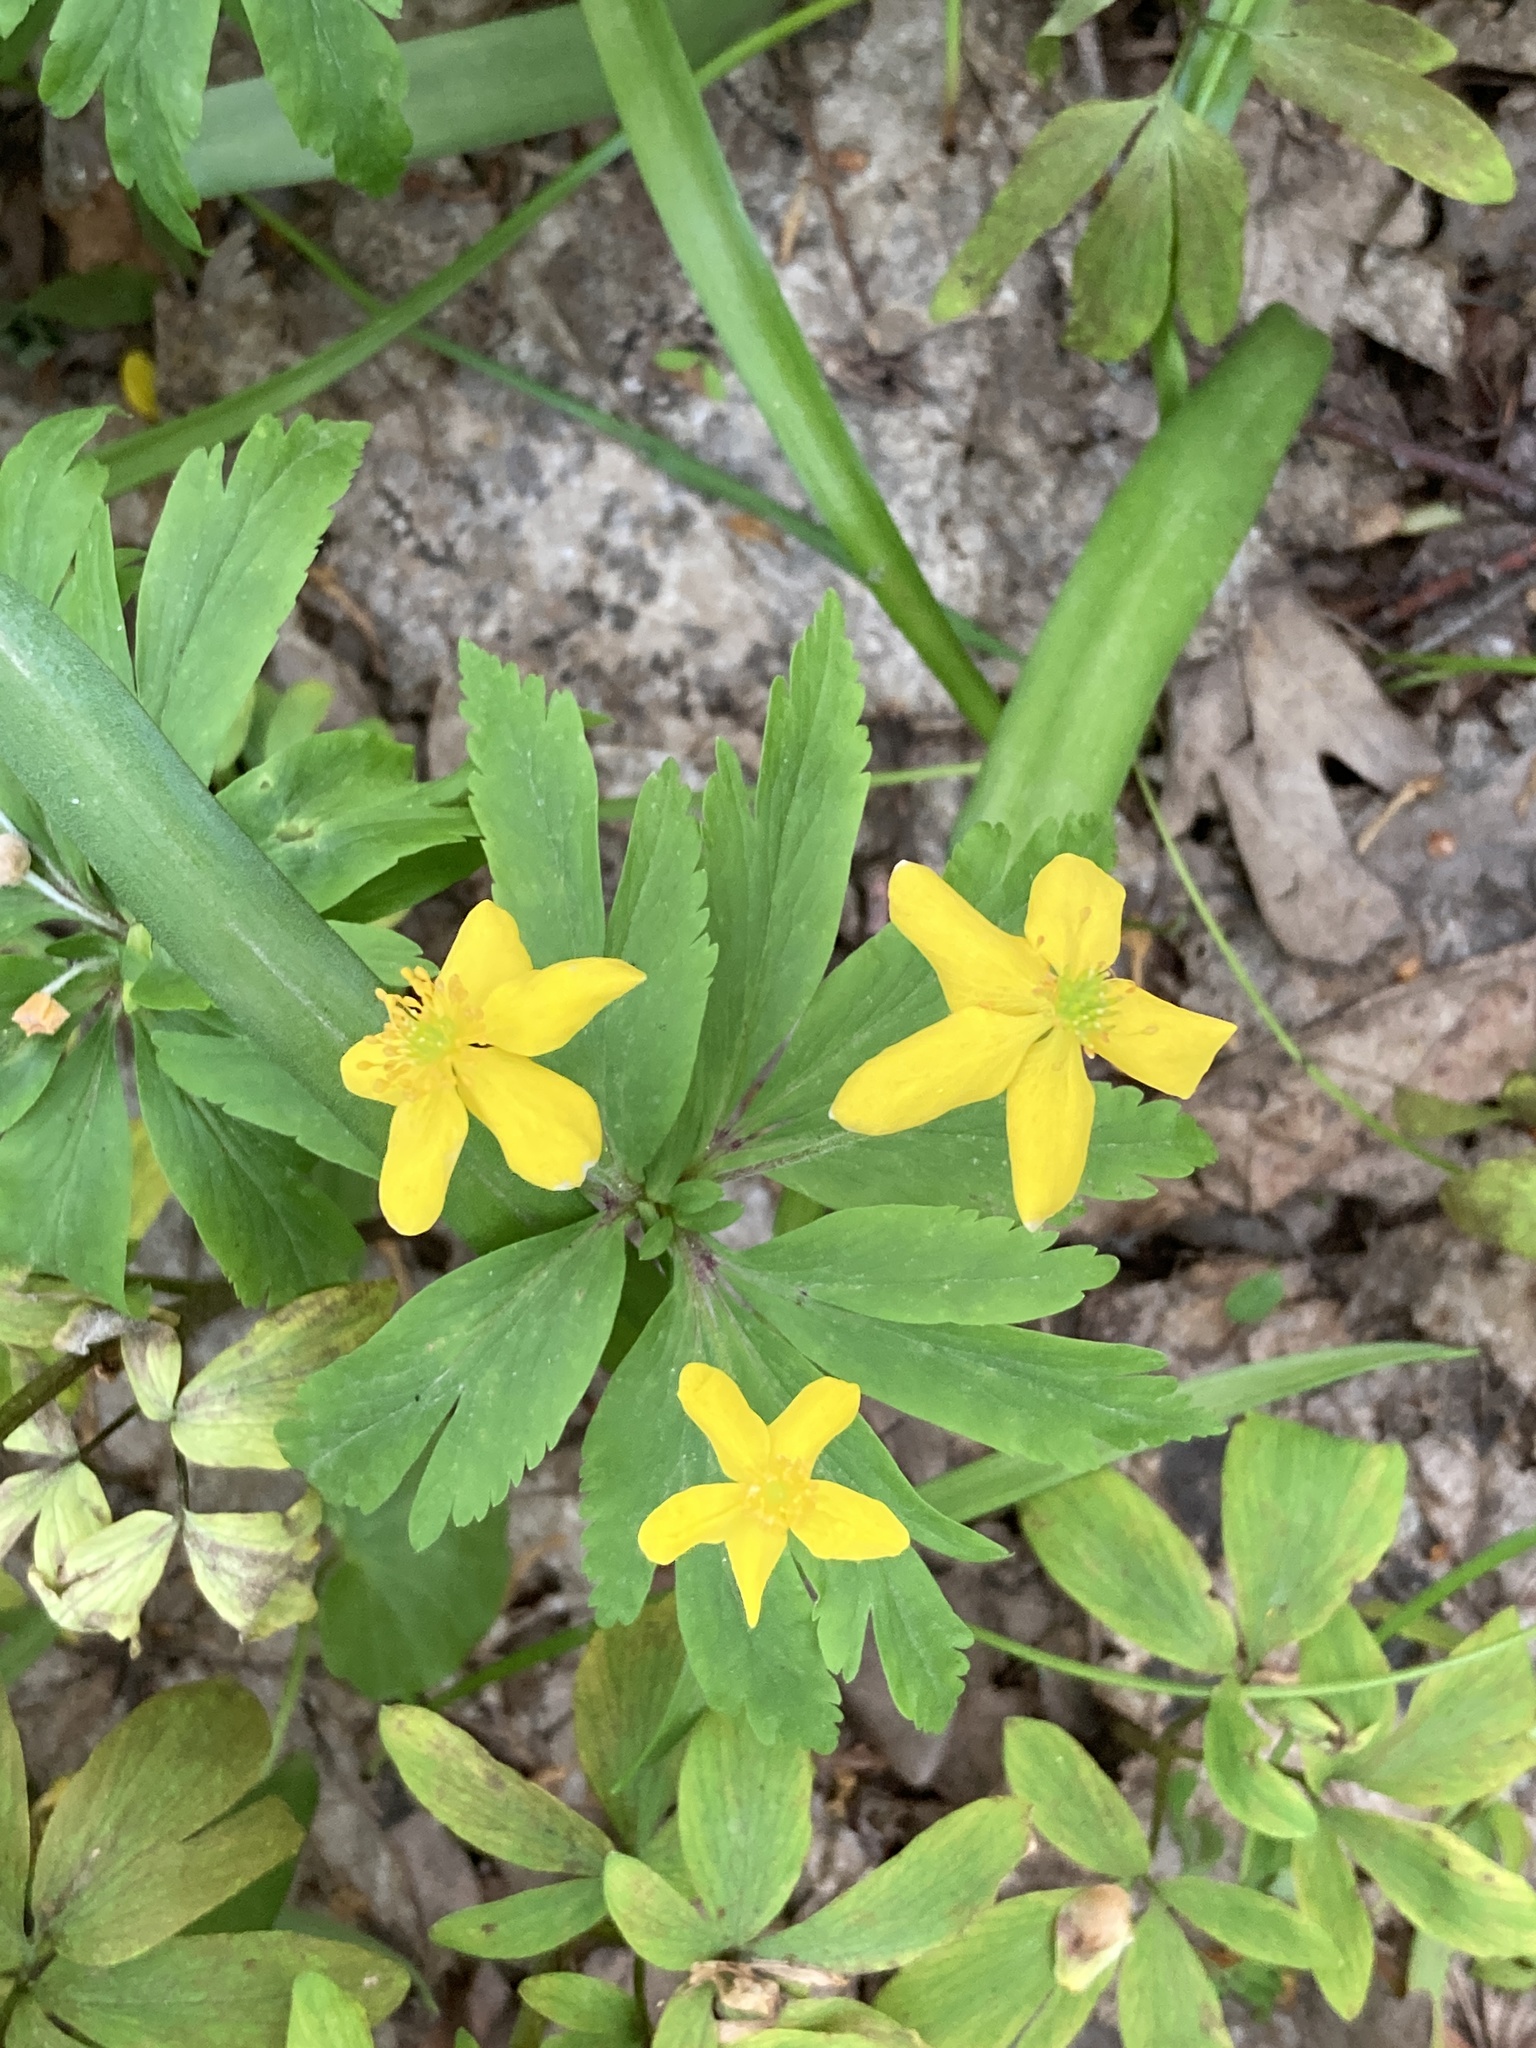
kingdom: Plantae
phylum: Tracheophyta
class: Magnoliopsida
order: Ranunculales
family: Ranunculaceae
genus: Anemone
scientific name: Anemone ranunculoides
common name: Yellow anemone
